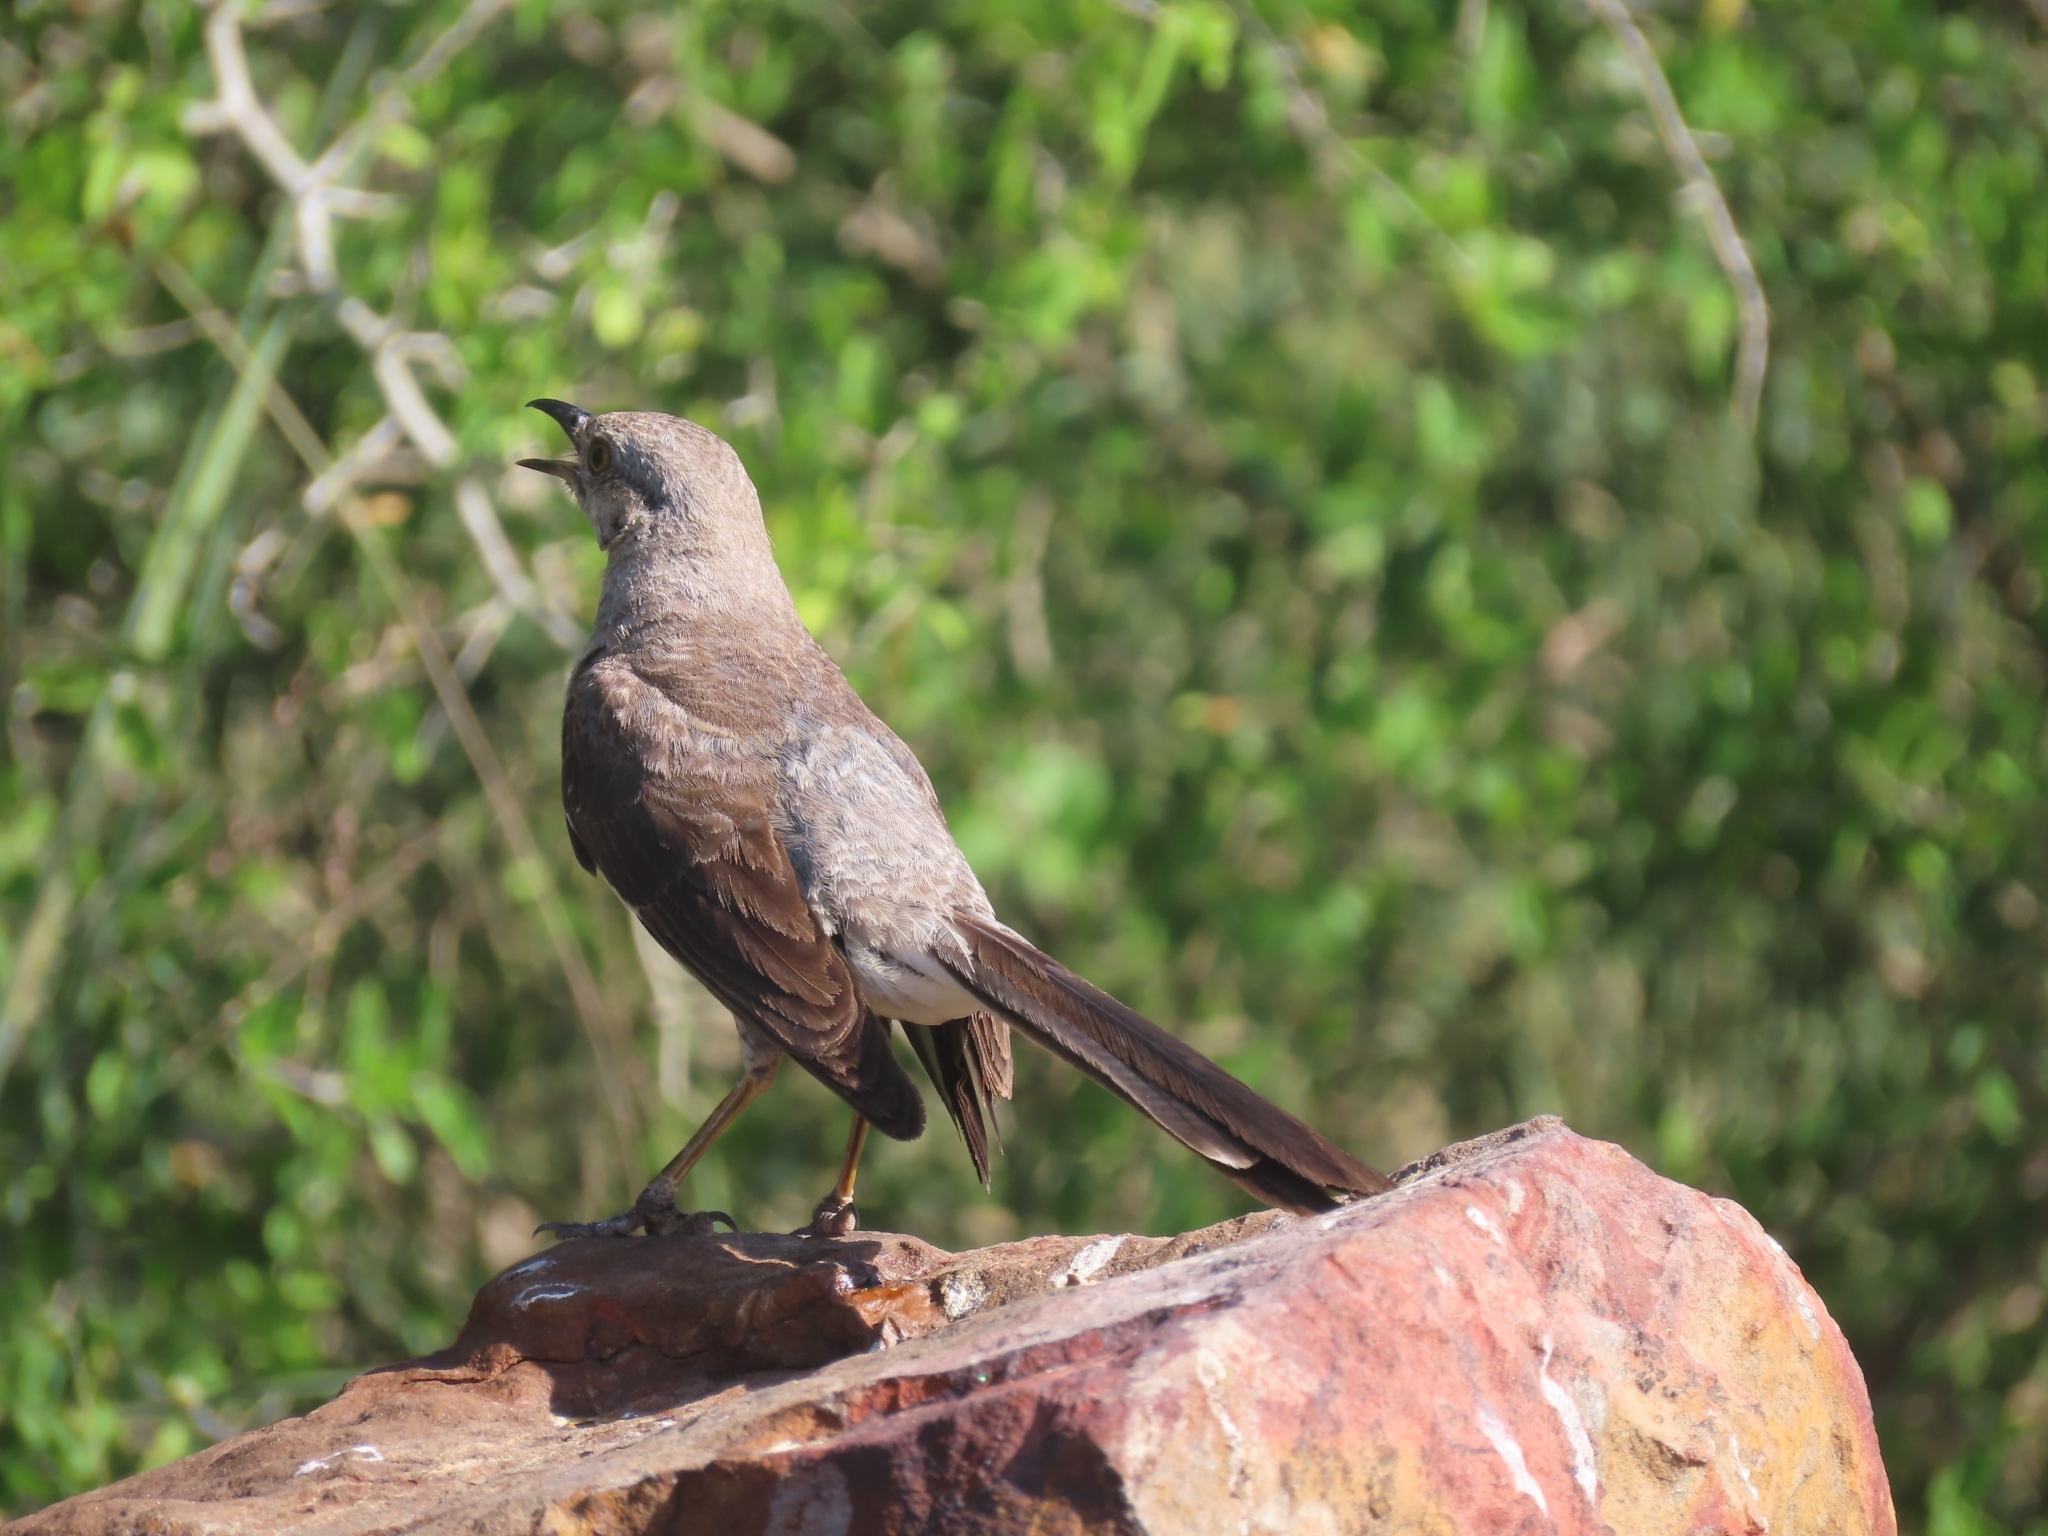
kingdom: Animalia
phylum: Chordata
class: Aves
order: Passeriformes
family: Mimidae
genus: Mimus
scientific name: Mimus polyglottos
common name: Northern mockingbird
